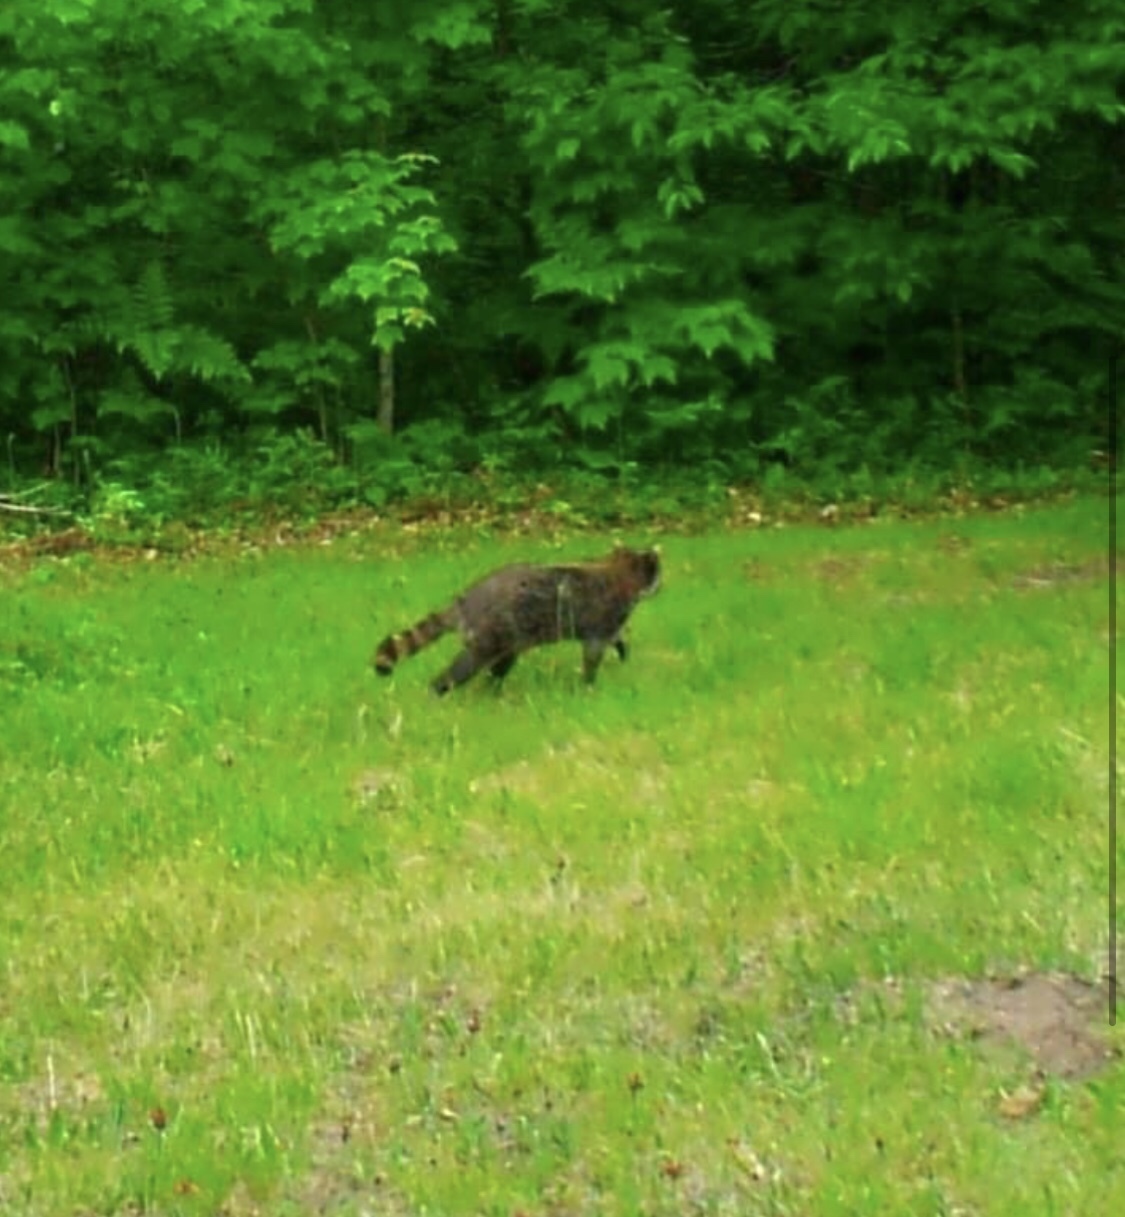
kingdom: Animalia
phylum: Chordata
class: Mammalia
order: Carnivora
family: Procyonidae
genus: Procyon
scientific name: Procyon lotor
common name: Raccoon
